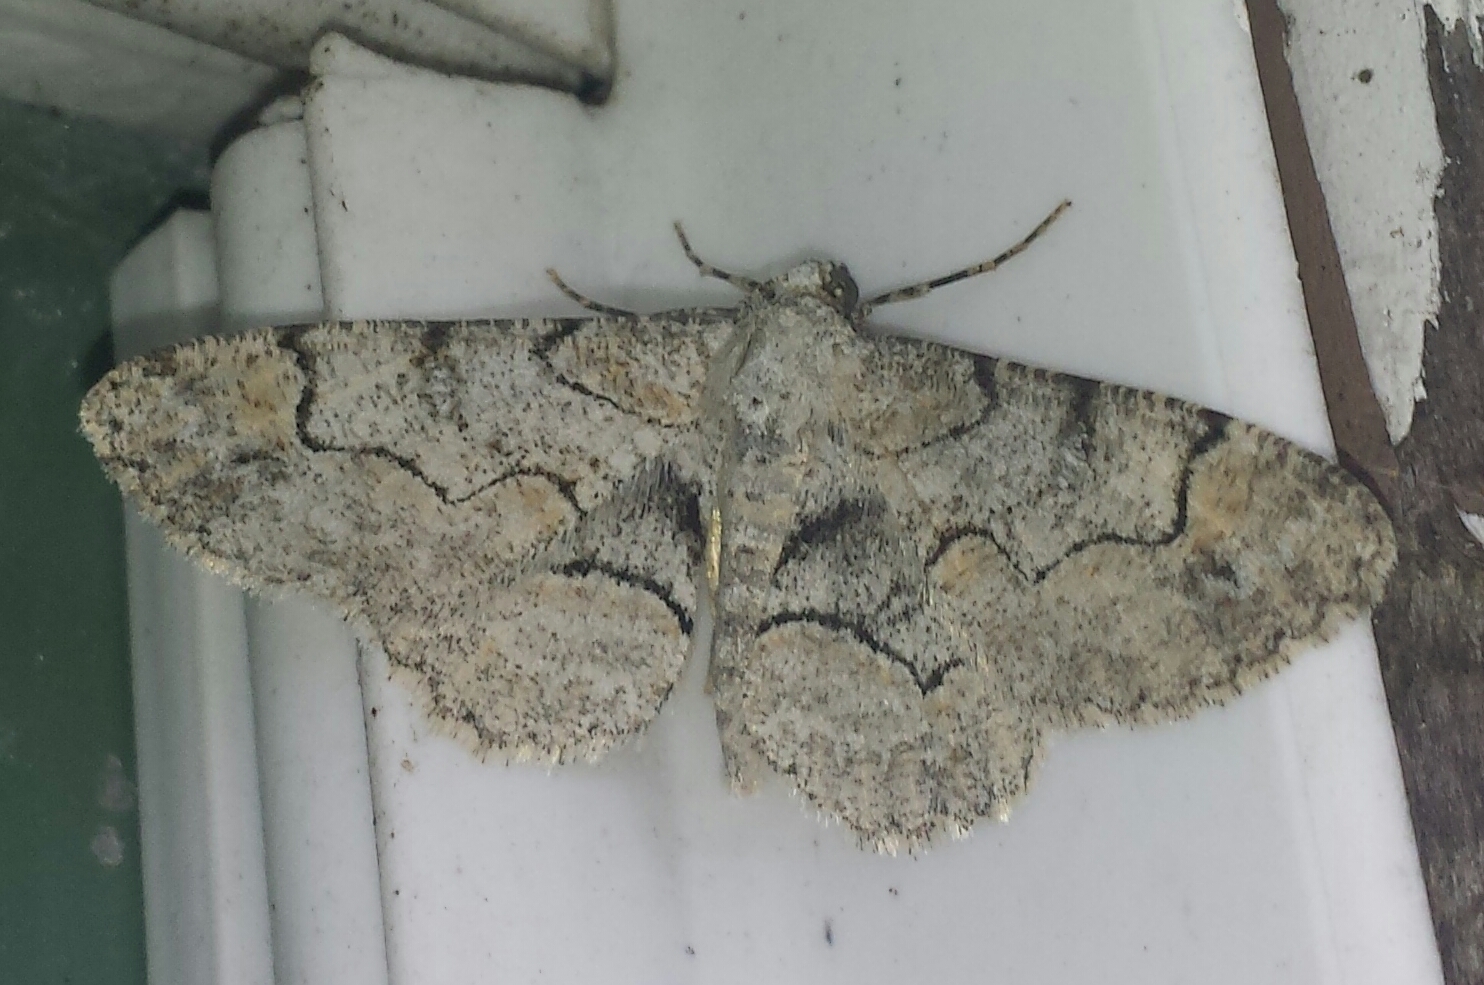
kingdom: Animalia
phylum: Arthropoda
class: Insecta
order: Lepidoptera
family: Geometridae
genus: Iridopsis
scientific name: Iridopsis larvaria
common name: Bent-line gray
